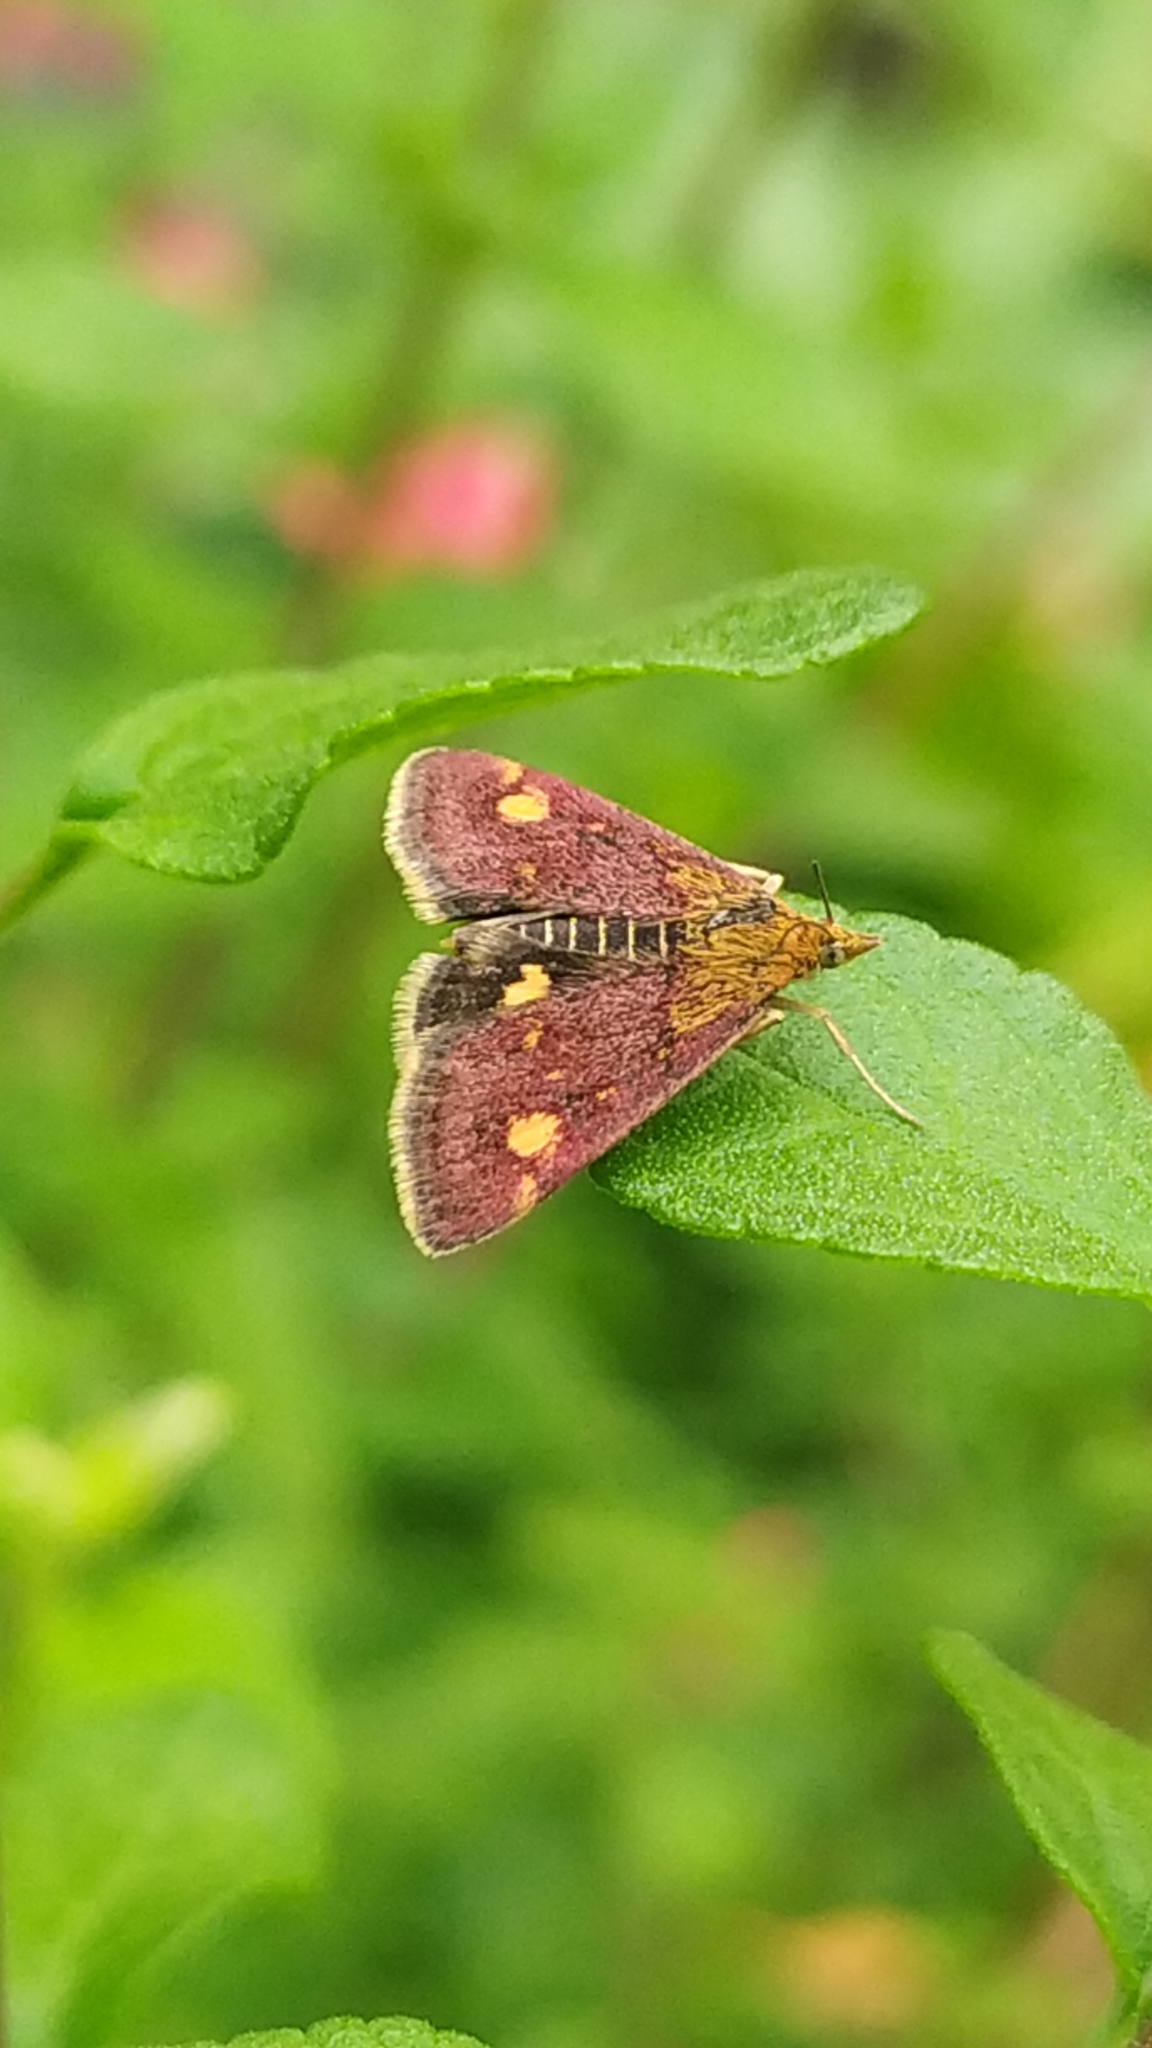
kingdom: Animalia
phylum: Arthropoda
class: Insecta
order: Lepidoptera
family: Crambidae
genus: Pyrausta
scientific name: Pyrausta aurata
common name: Small purple & gold
